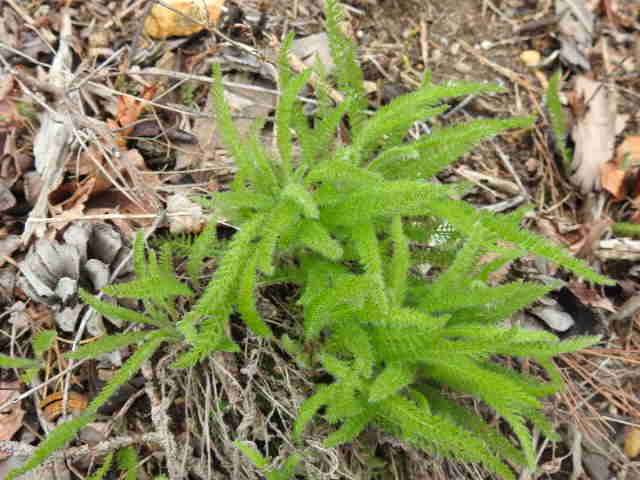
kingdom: Plantae
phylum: Tracheophyta
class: Magnoliopsida
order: Asterales
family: Asteraceae
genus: Achillea
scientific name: Achillea millefolium
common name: Yarrow
